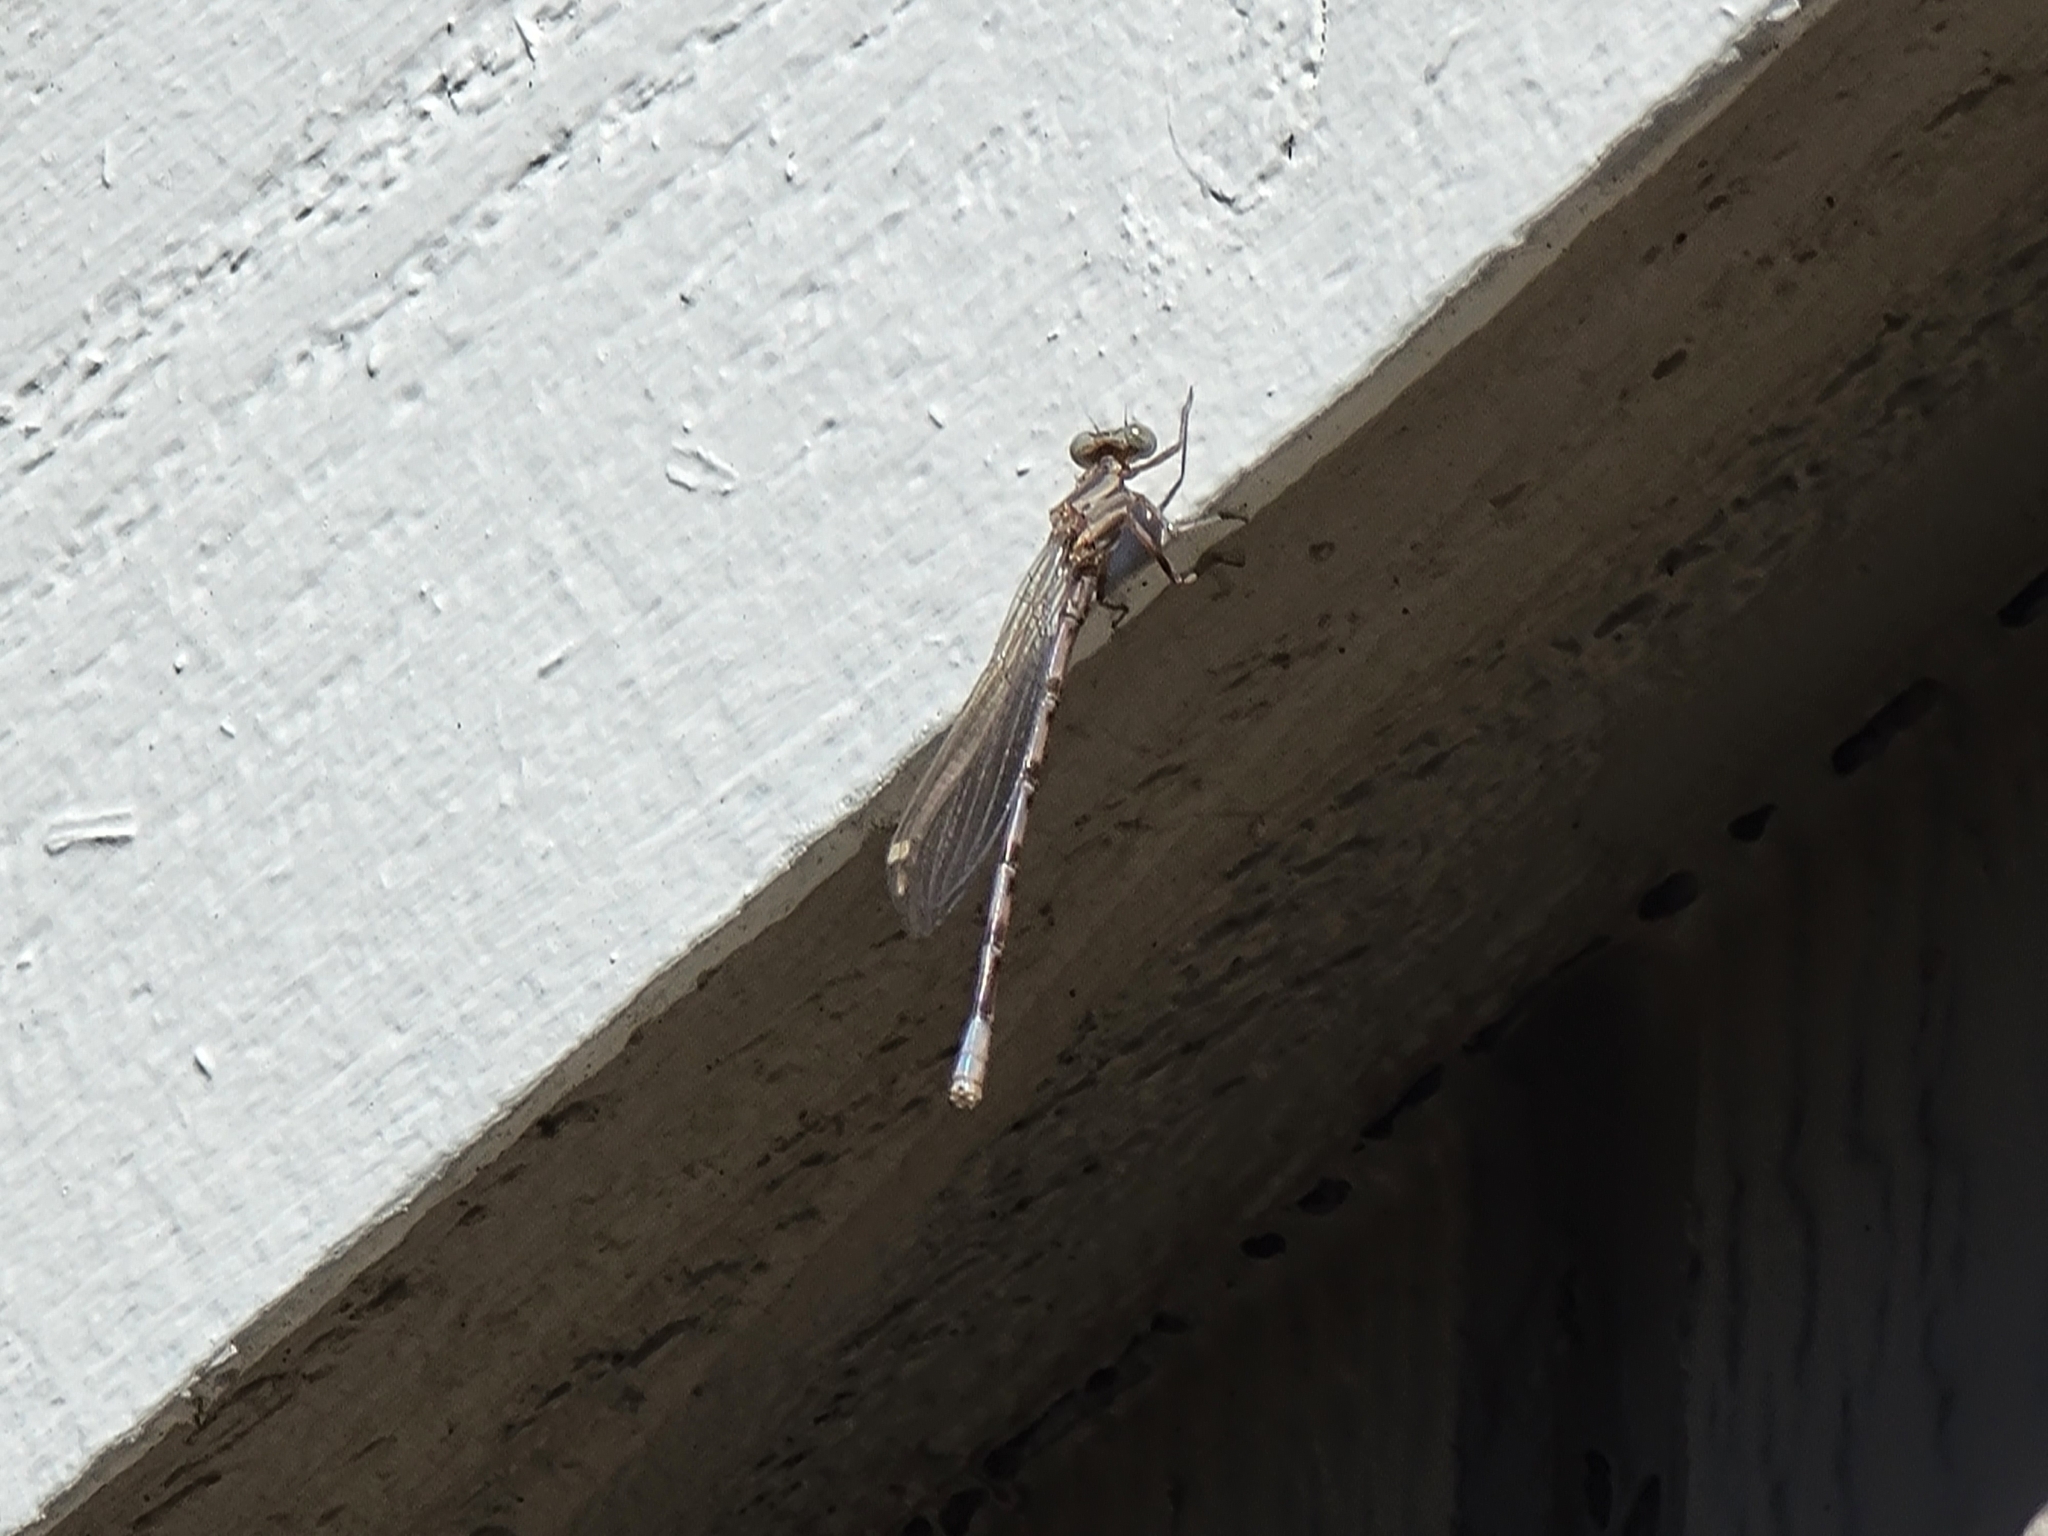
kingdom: Animalia
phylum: Arthropoda
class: Insecta
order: Odonata
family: Coenagrionidae
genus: Argia
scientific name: Argia vivida
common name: Vivid dancer
